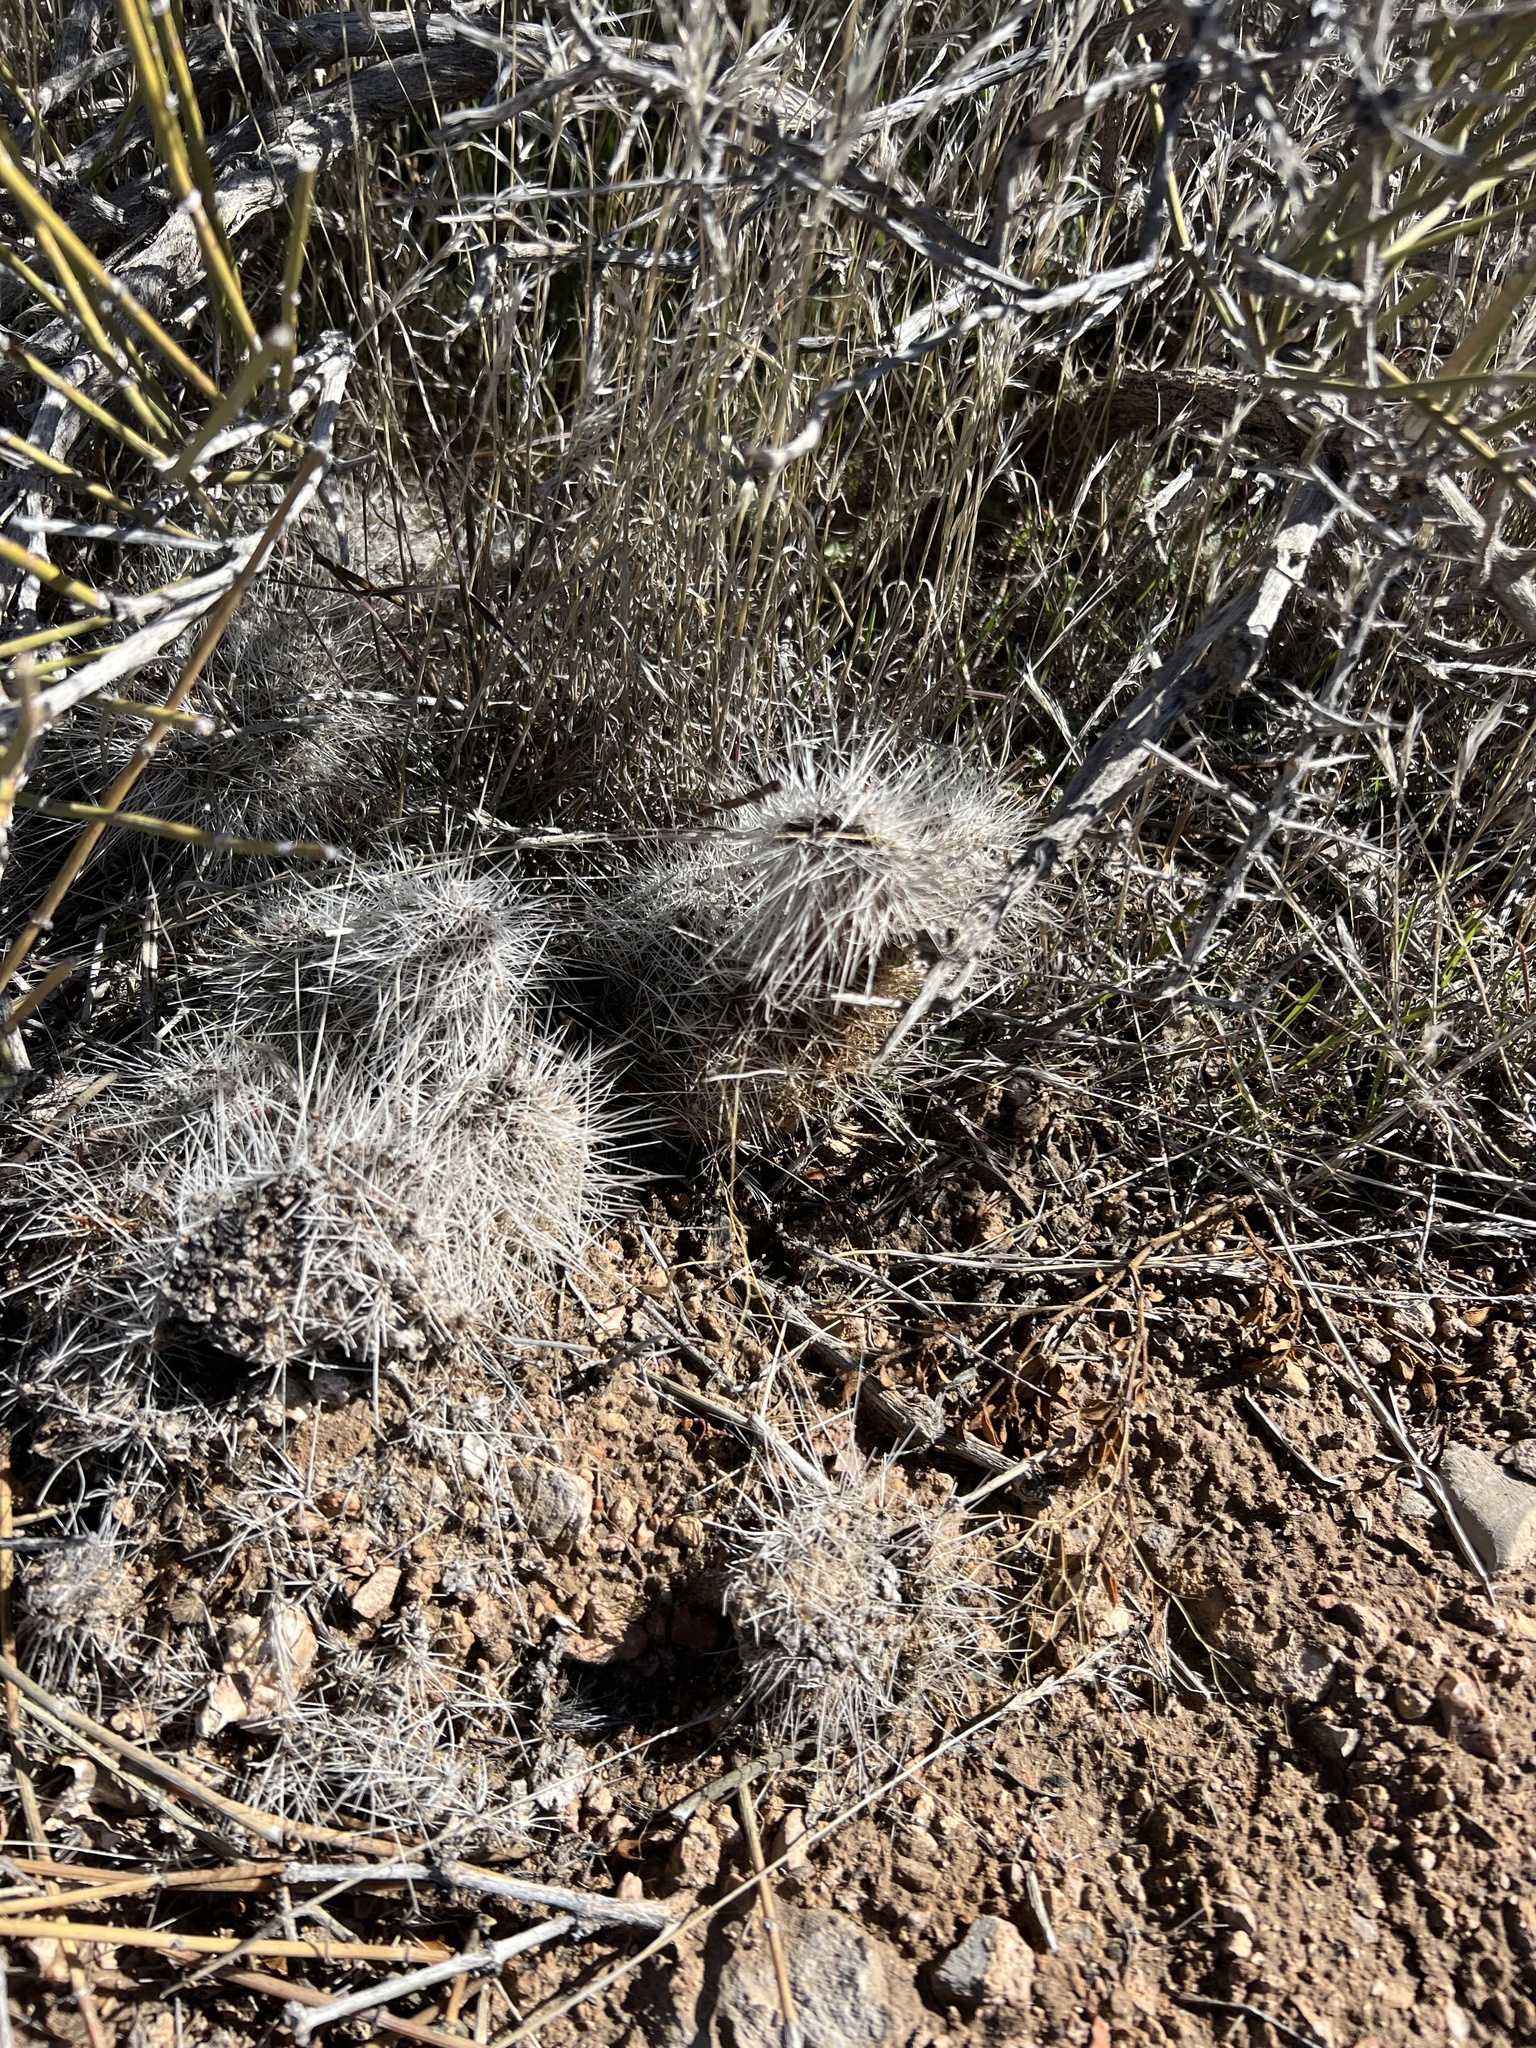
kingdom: Plantae
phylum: Tracheophyta
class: Magnoliopsida
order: Caryophyllales
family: Cactaceae
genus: Opuntia
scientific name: Opuntia polyacantha
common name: Plains prickly-pear
